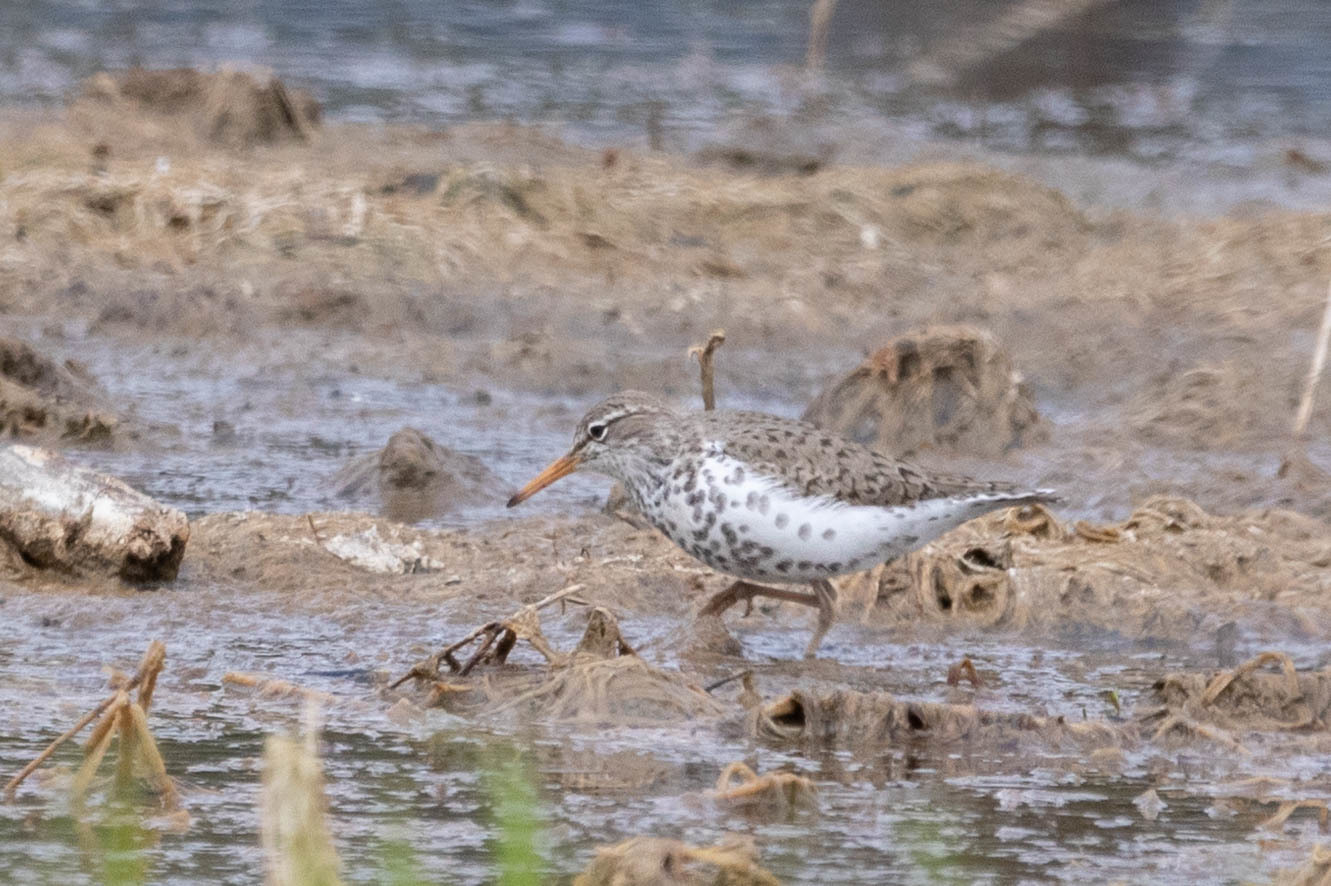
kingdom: Animalia
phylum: Chordata
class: Aves
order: Charadriiformes
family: Scolopacidae
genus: Actitis
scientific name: Actitis macularius
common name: Spotted sandpiper
